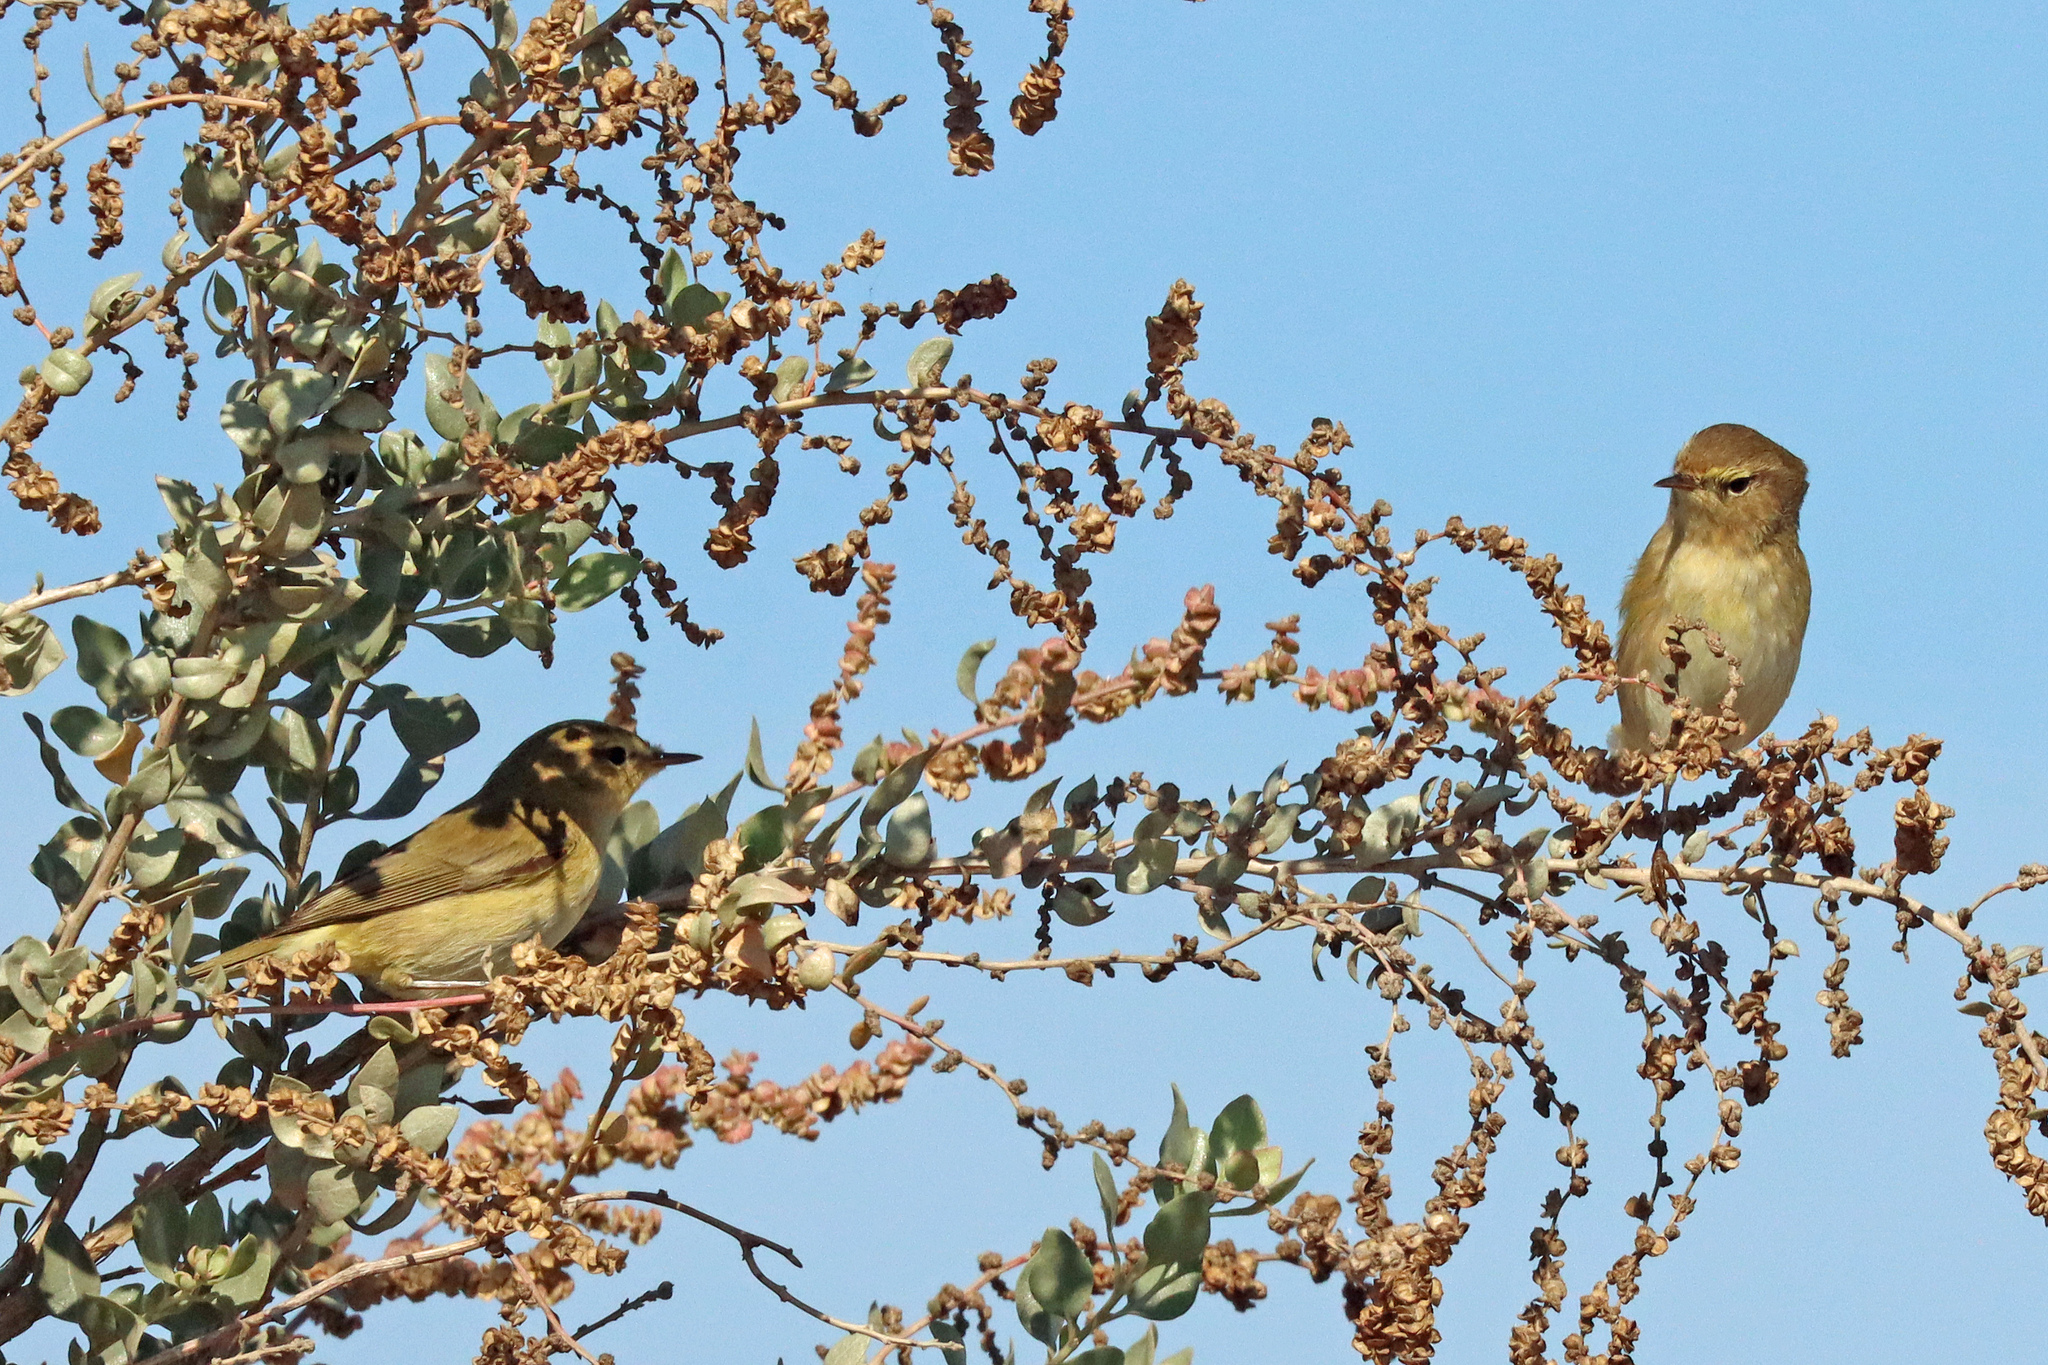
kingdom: Animalia
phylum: Chordata
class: Aves
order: Passeriformes
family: Phylloscopidae
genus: Phylloscopus
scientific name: Phylloscopus collybita
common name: Common chiffchaff
